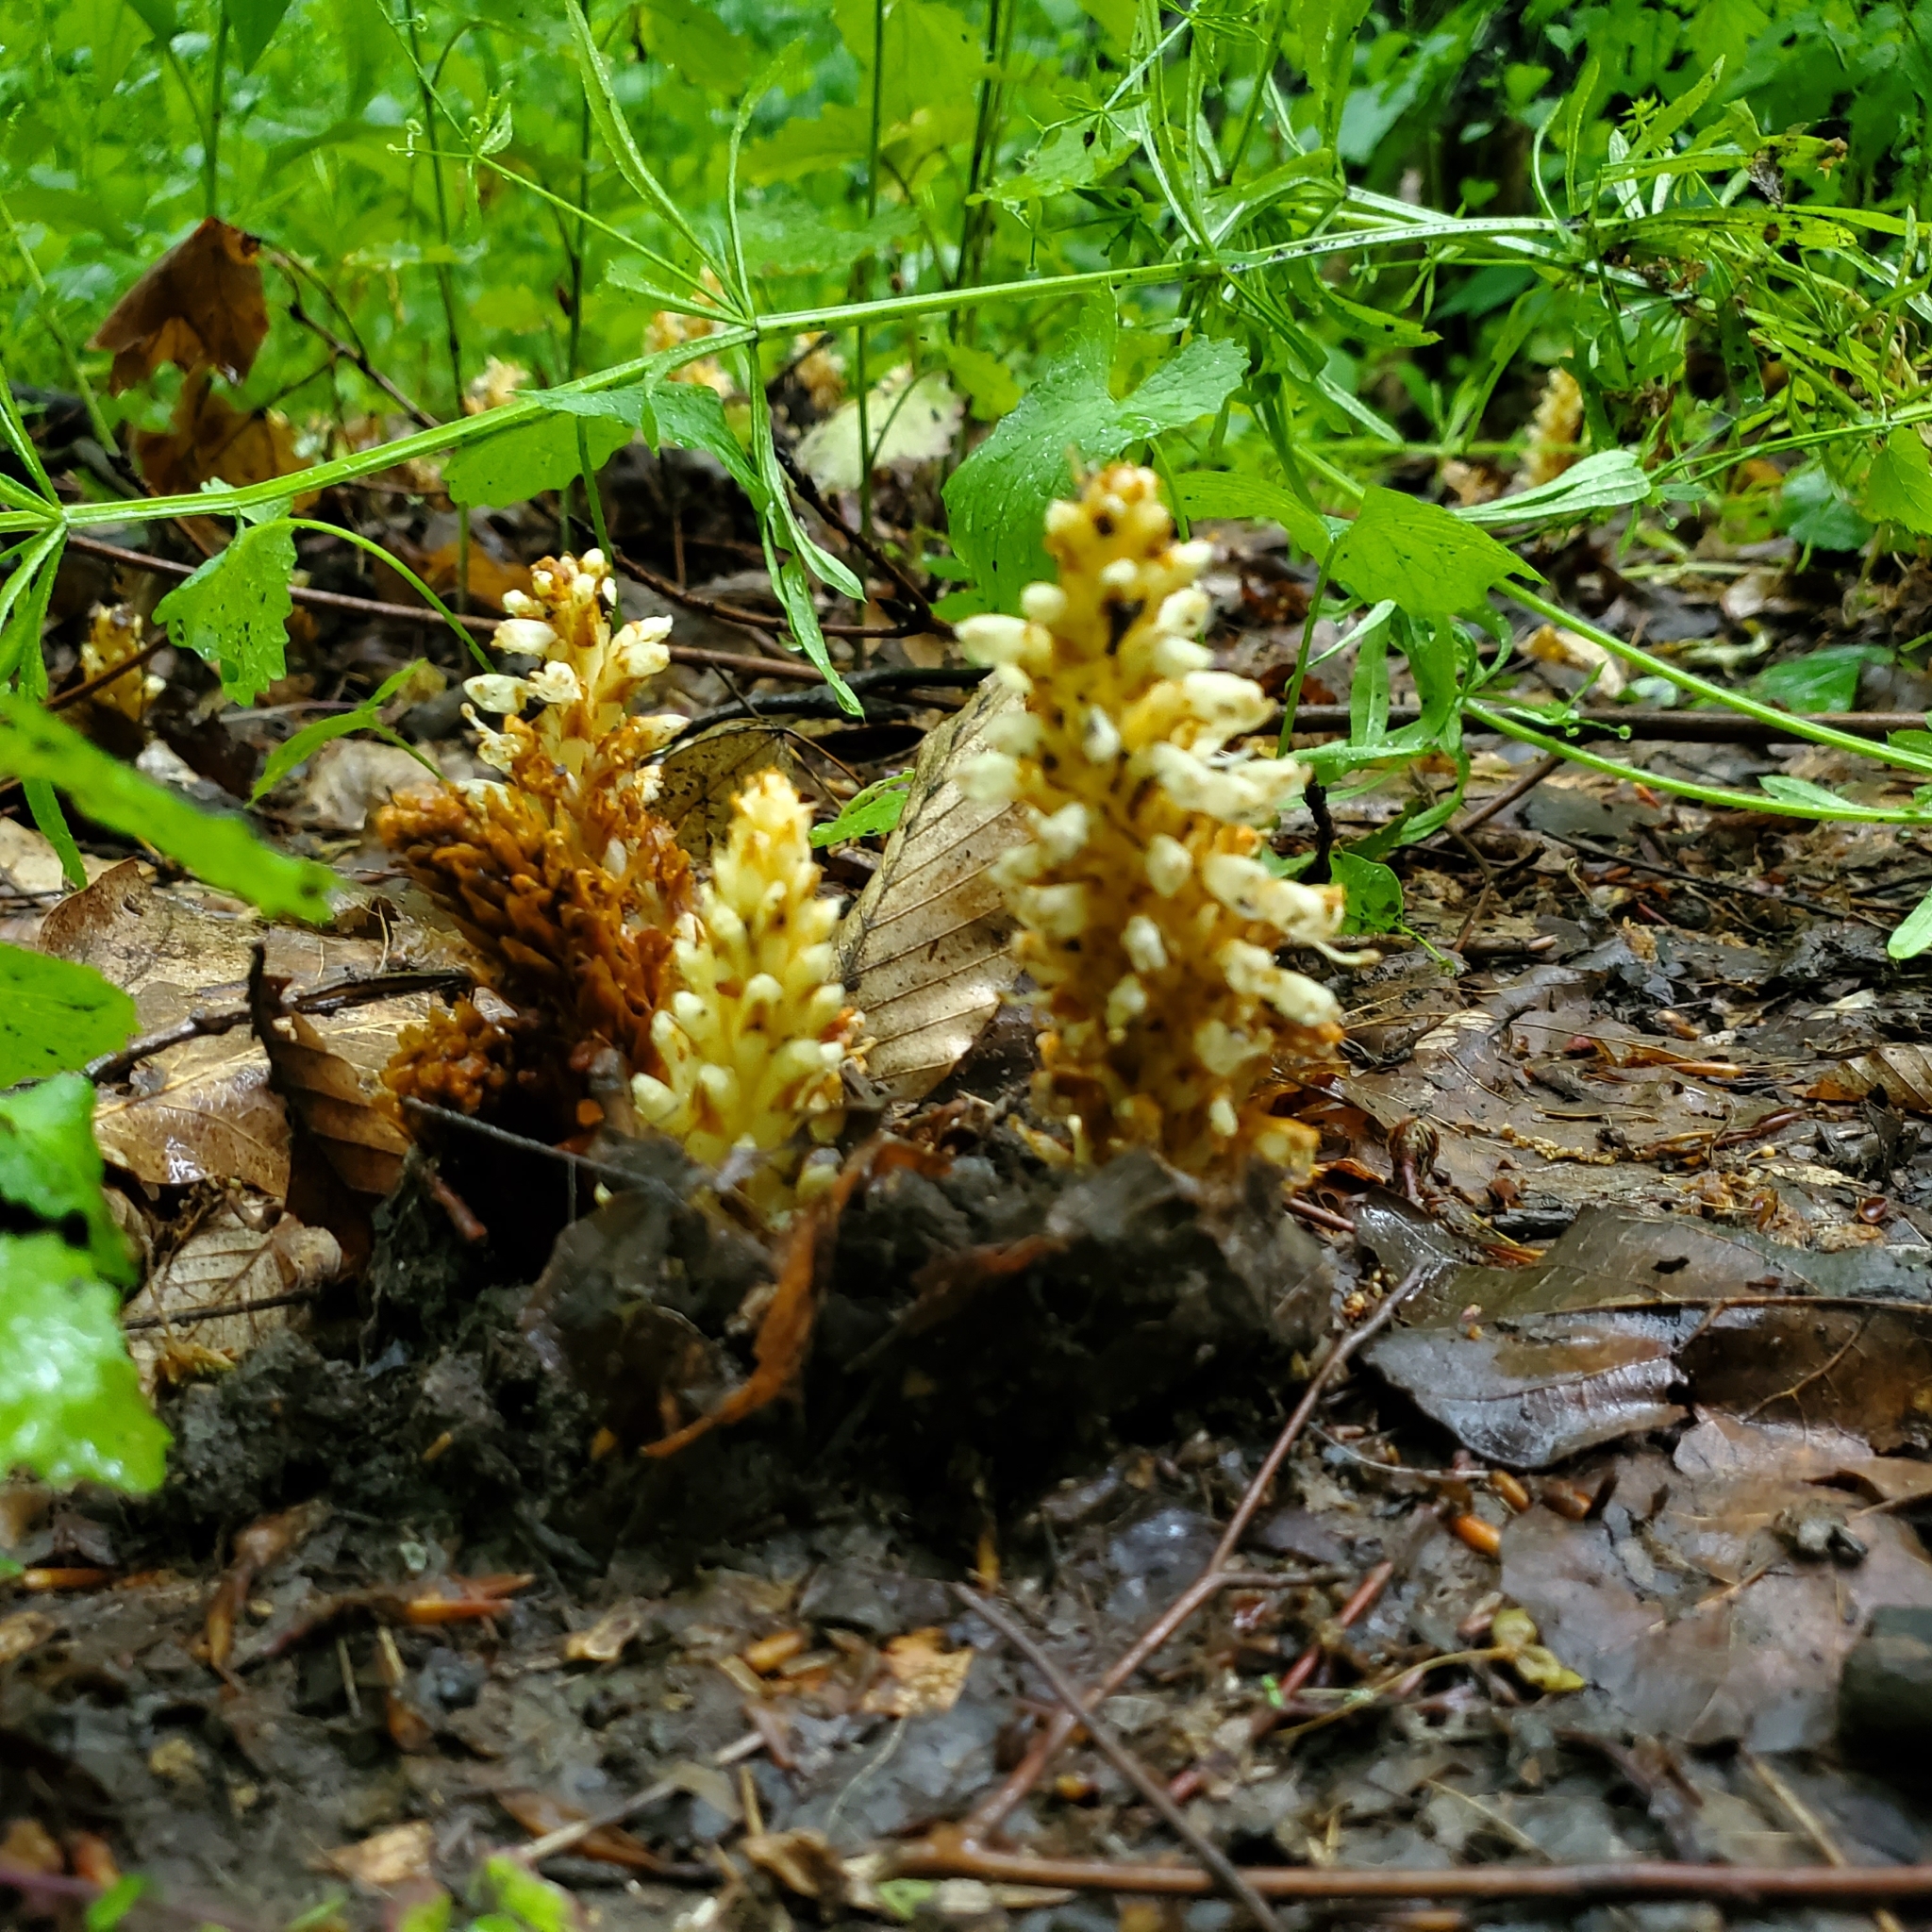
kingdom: Plantae
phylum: Tracheophyta
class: Magnoliopsida
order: Lamiales
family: Orobanchaceae
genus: Conopholis
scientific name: Conopholis americana
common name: American cancer-root
